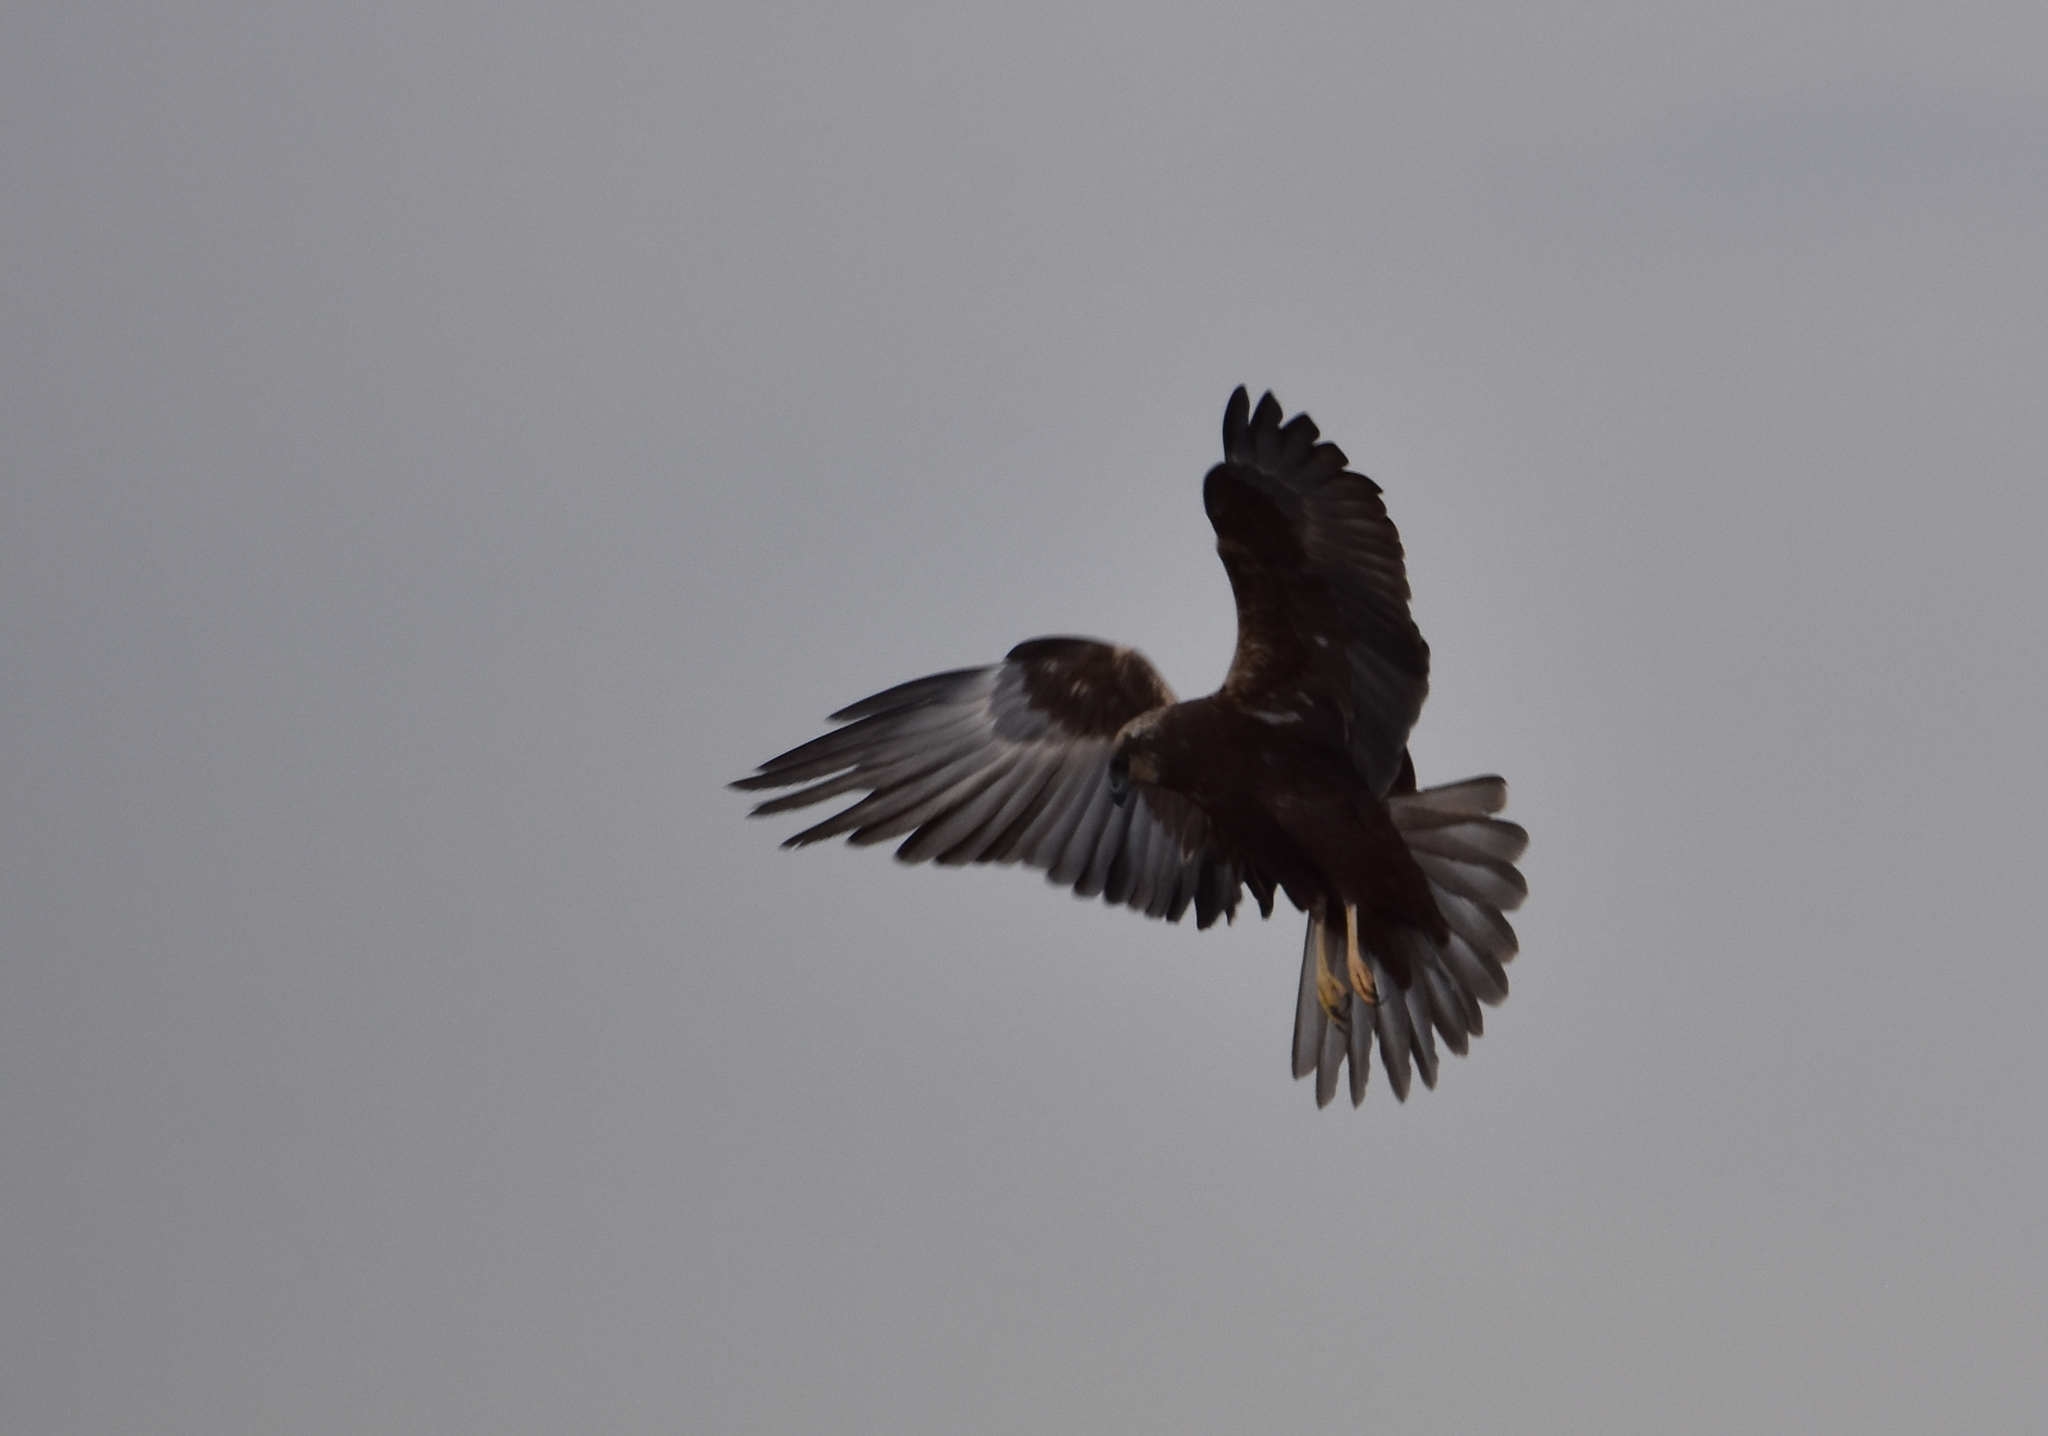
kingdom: Animalia
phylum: Chordata
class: Aves
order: Accipitriformes
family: Accipitridae
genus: Circus
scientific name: Circus aeruginosus
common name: Western marsh harrier
